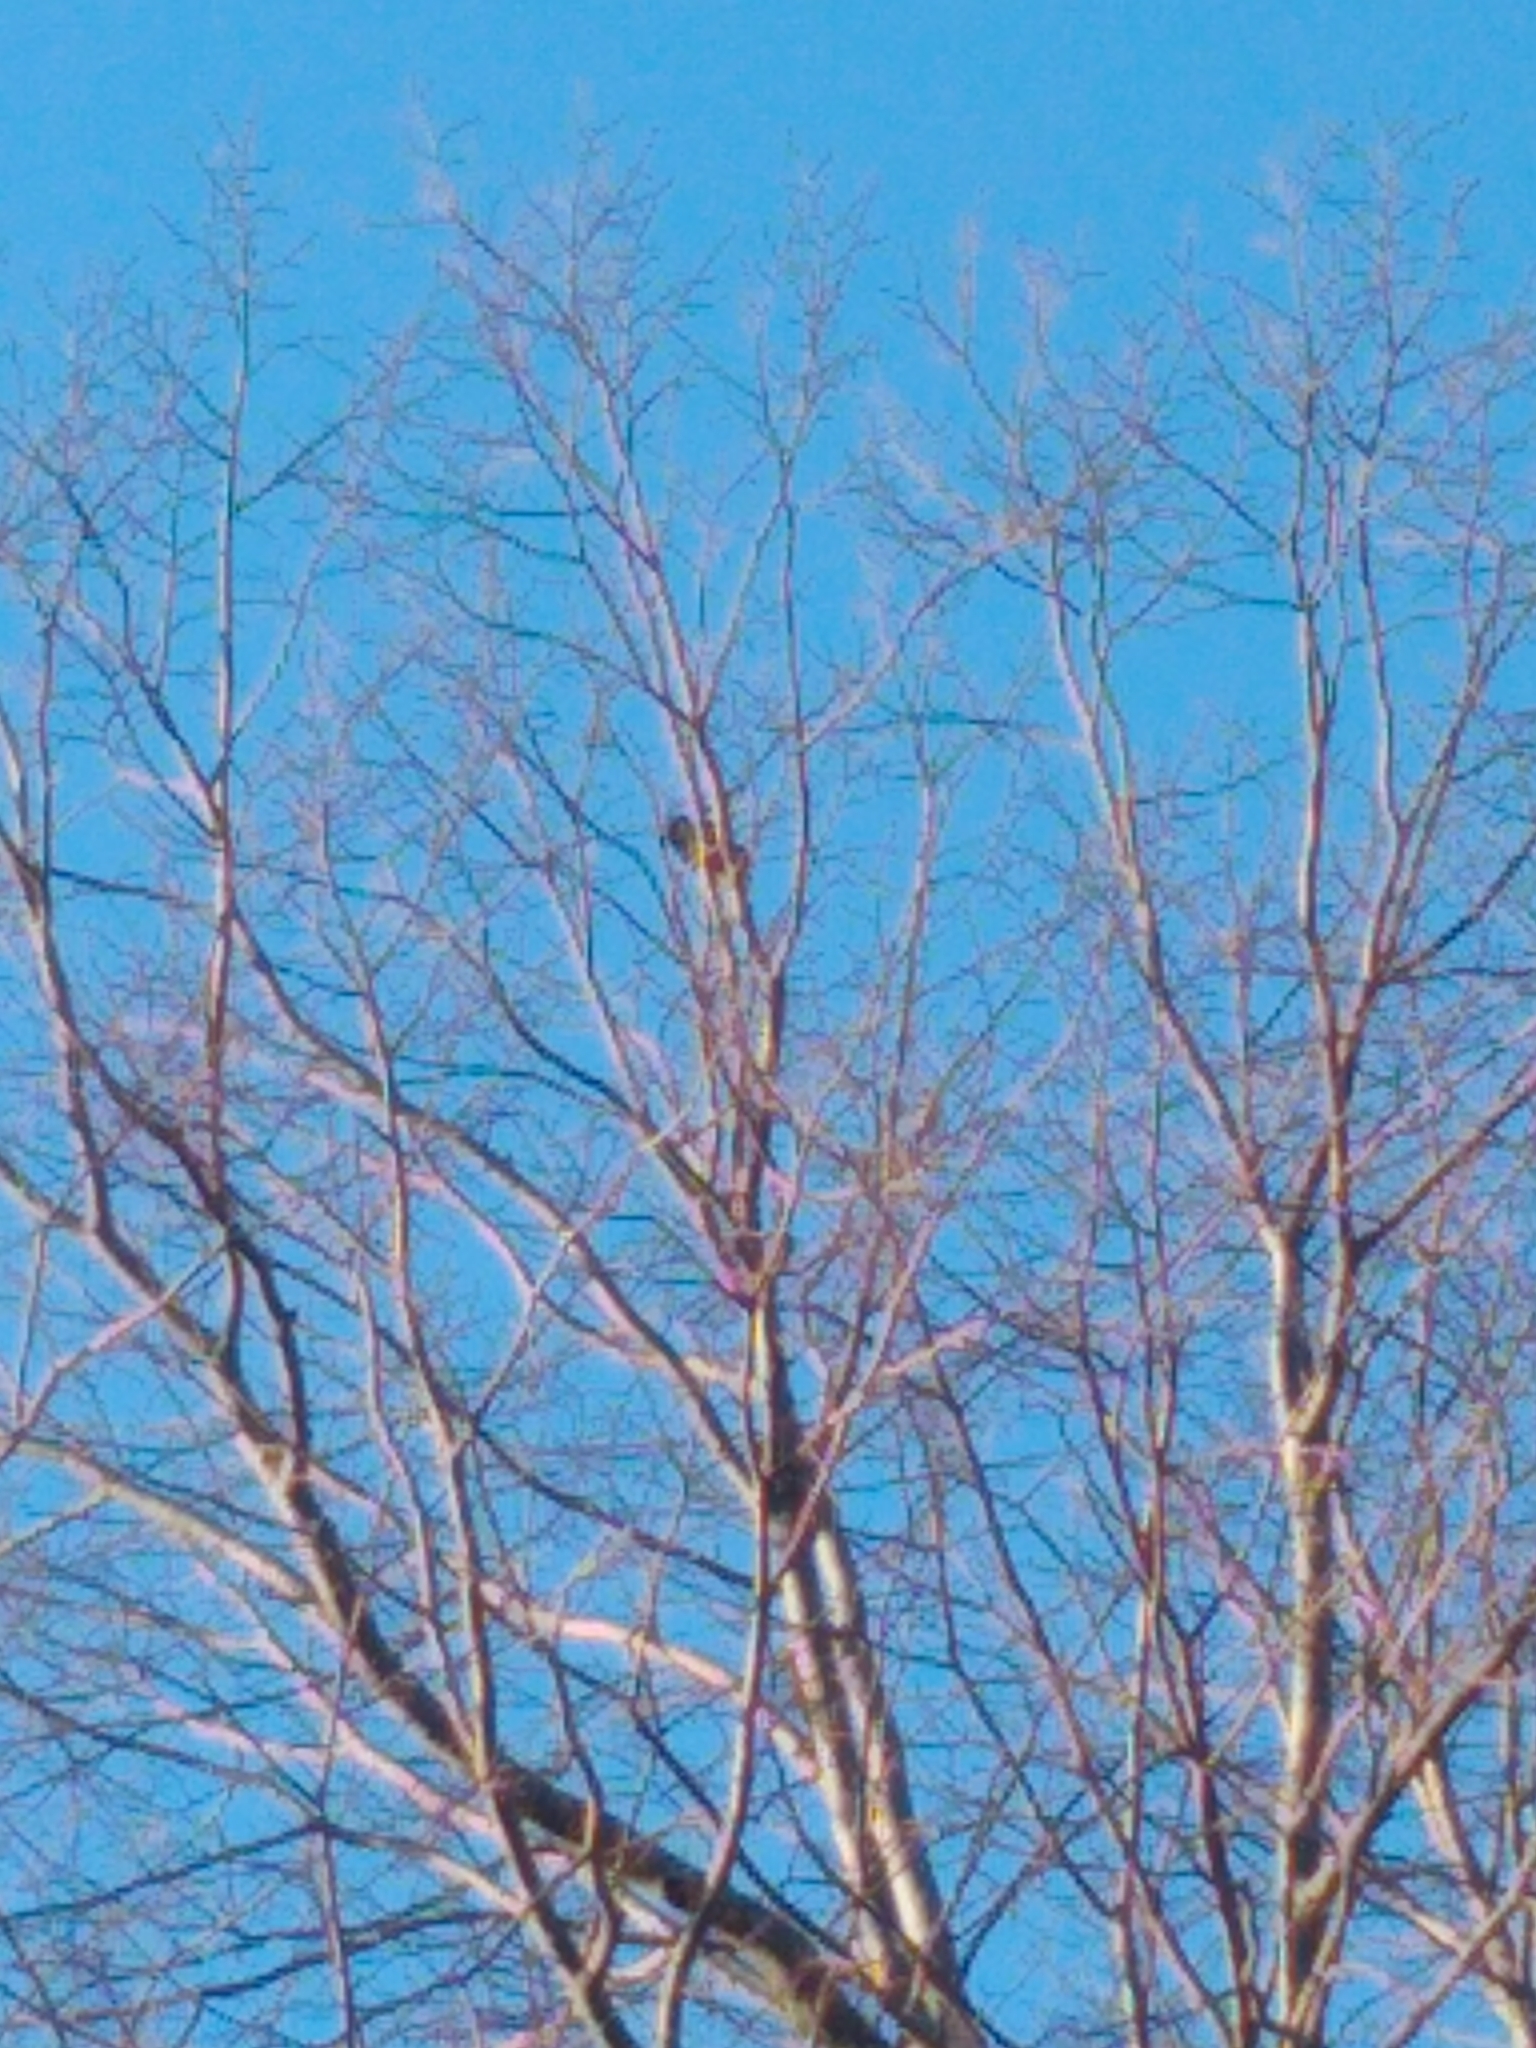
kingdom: Animalia
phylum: Chordata
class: Aves
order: Passeriformes
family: Cardinalidae
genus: Cardinalis
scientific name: Cardinalis cardinalis
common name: Northern cardinal
